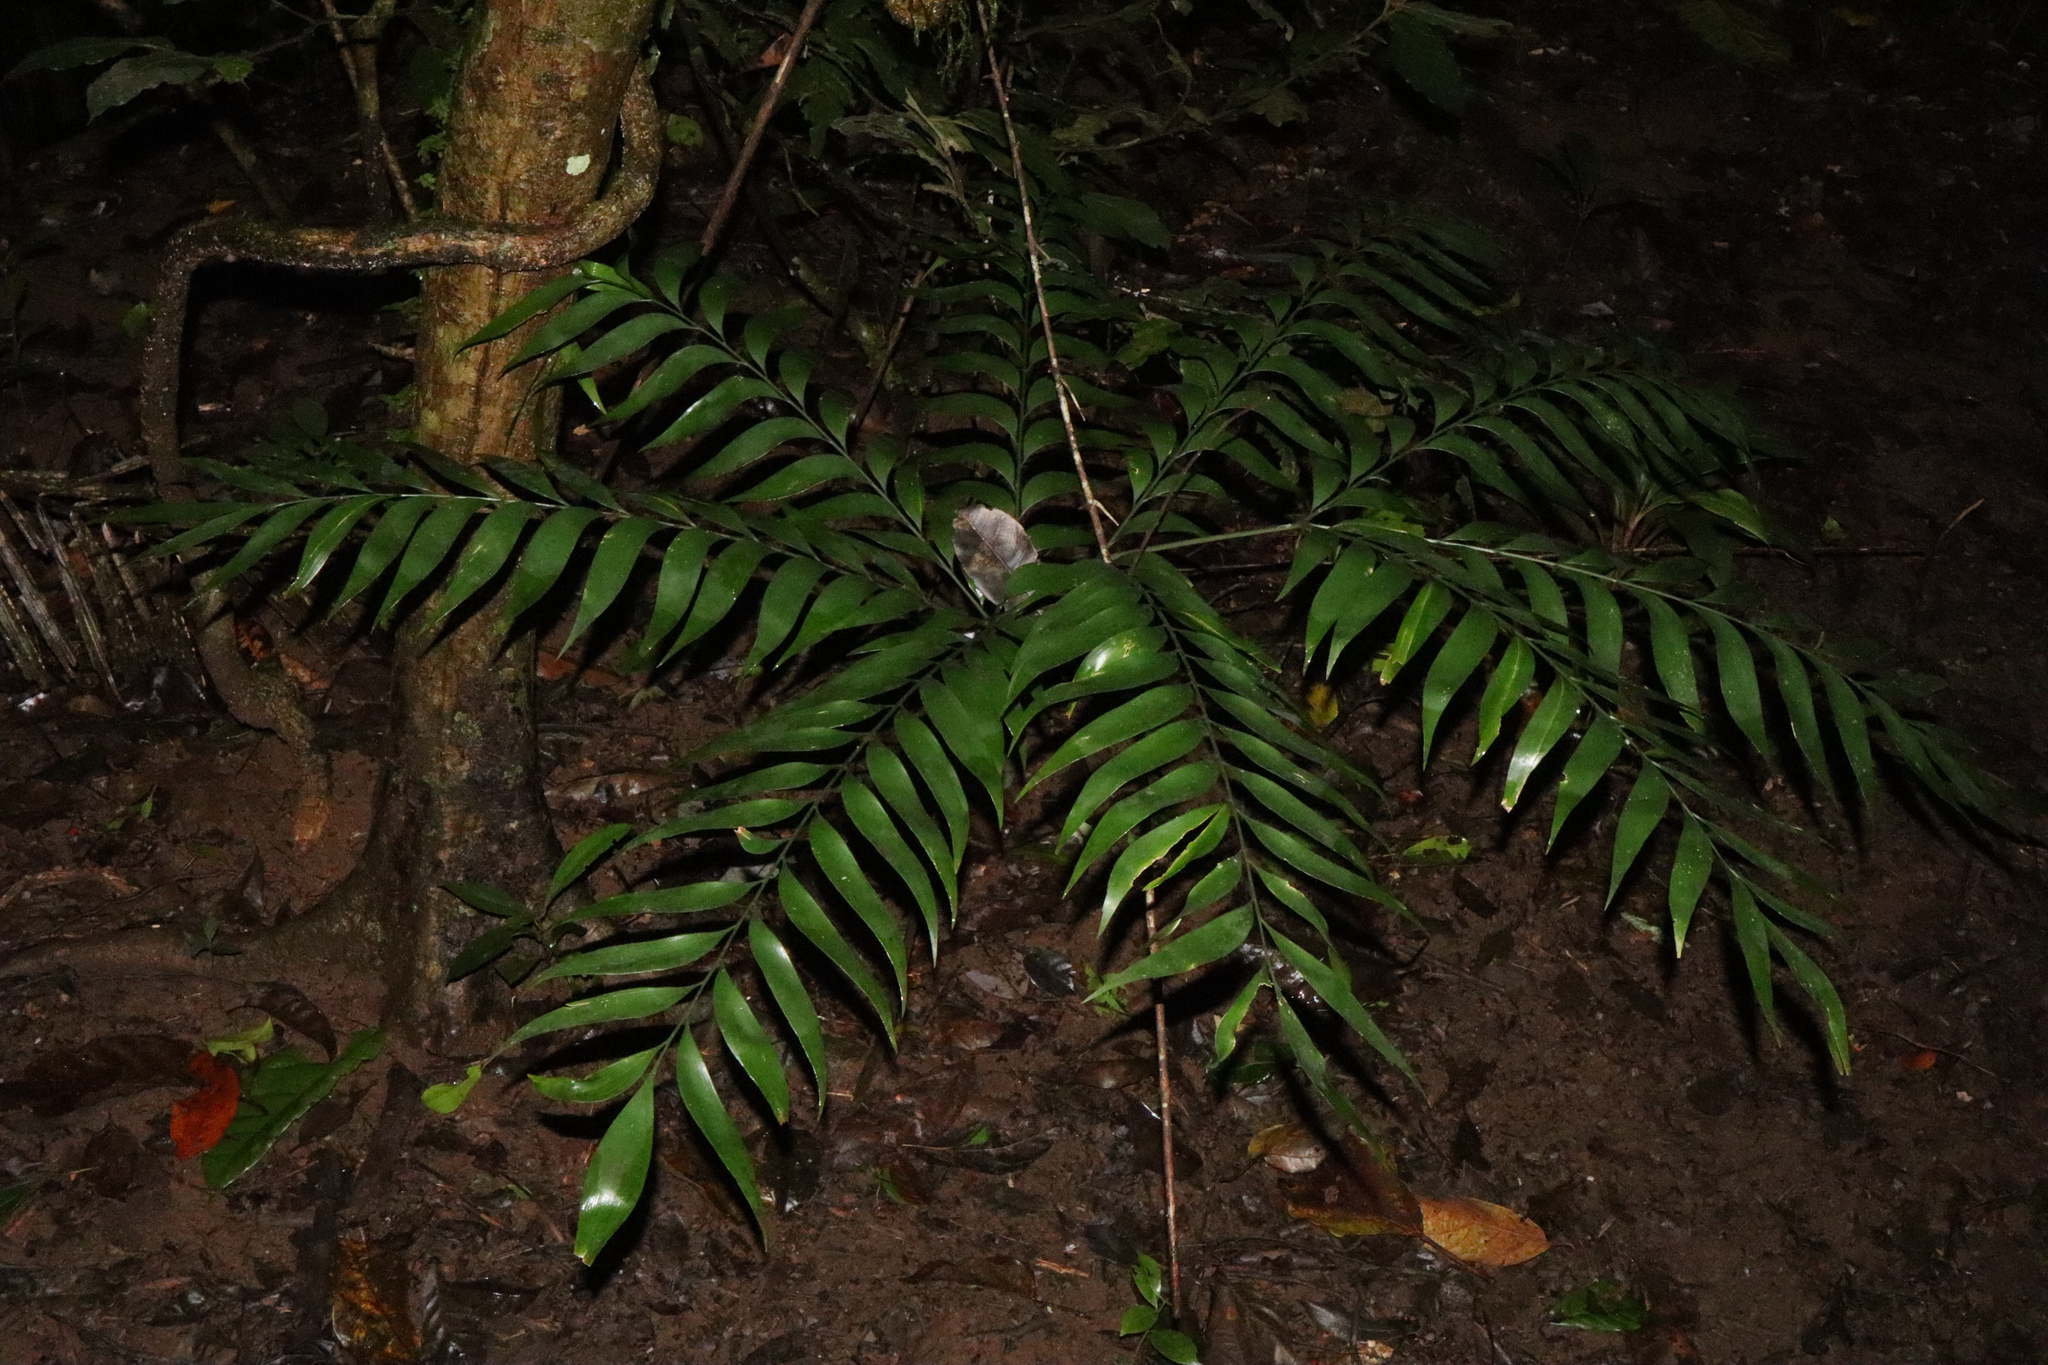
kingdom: Plantae
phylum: Tracheophyta
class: Cycadopsida
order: Cycadales
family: Zamiaceae
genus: Bowenia
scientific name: Bowenia spectabilis
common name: Zamia-fern
